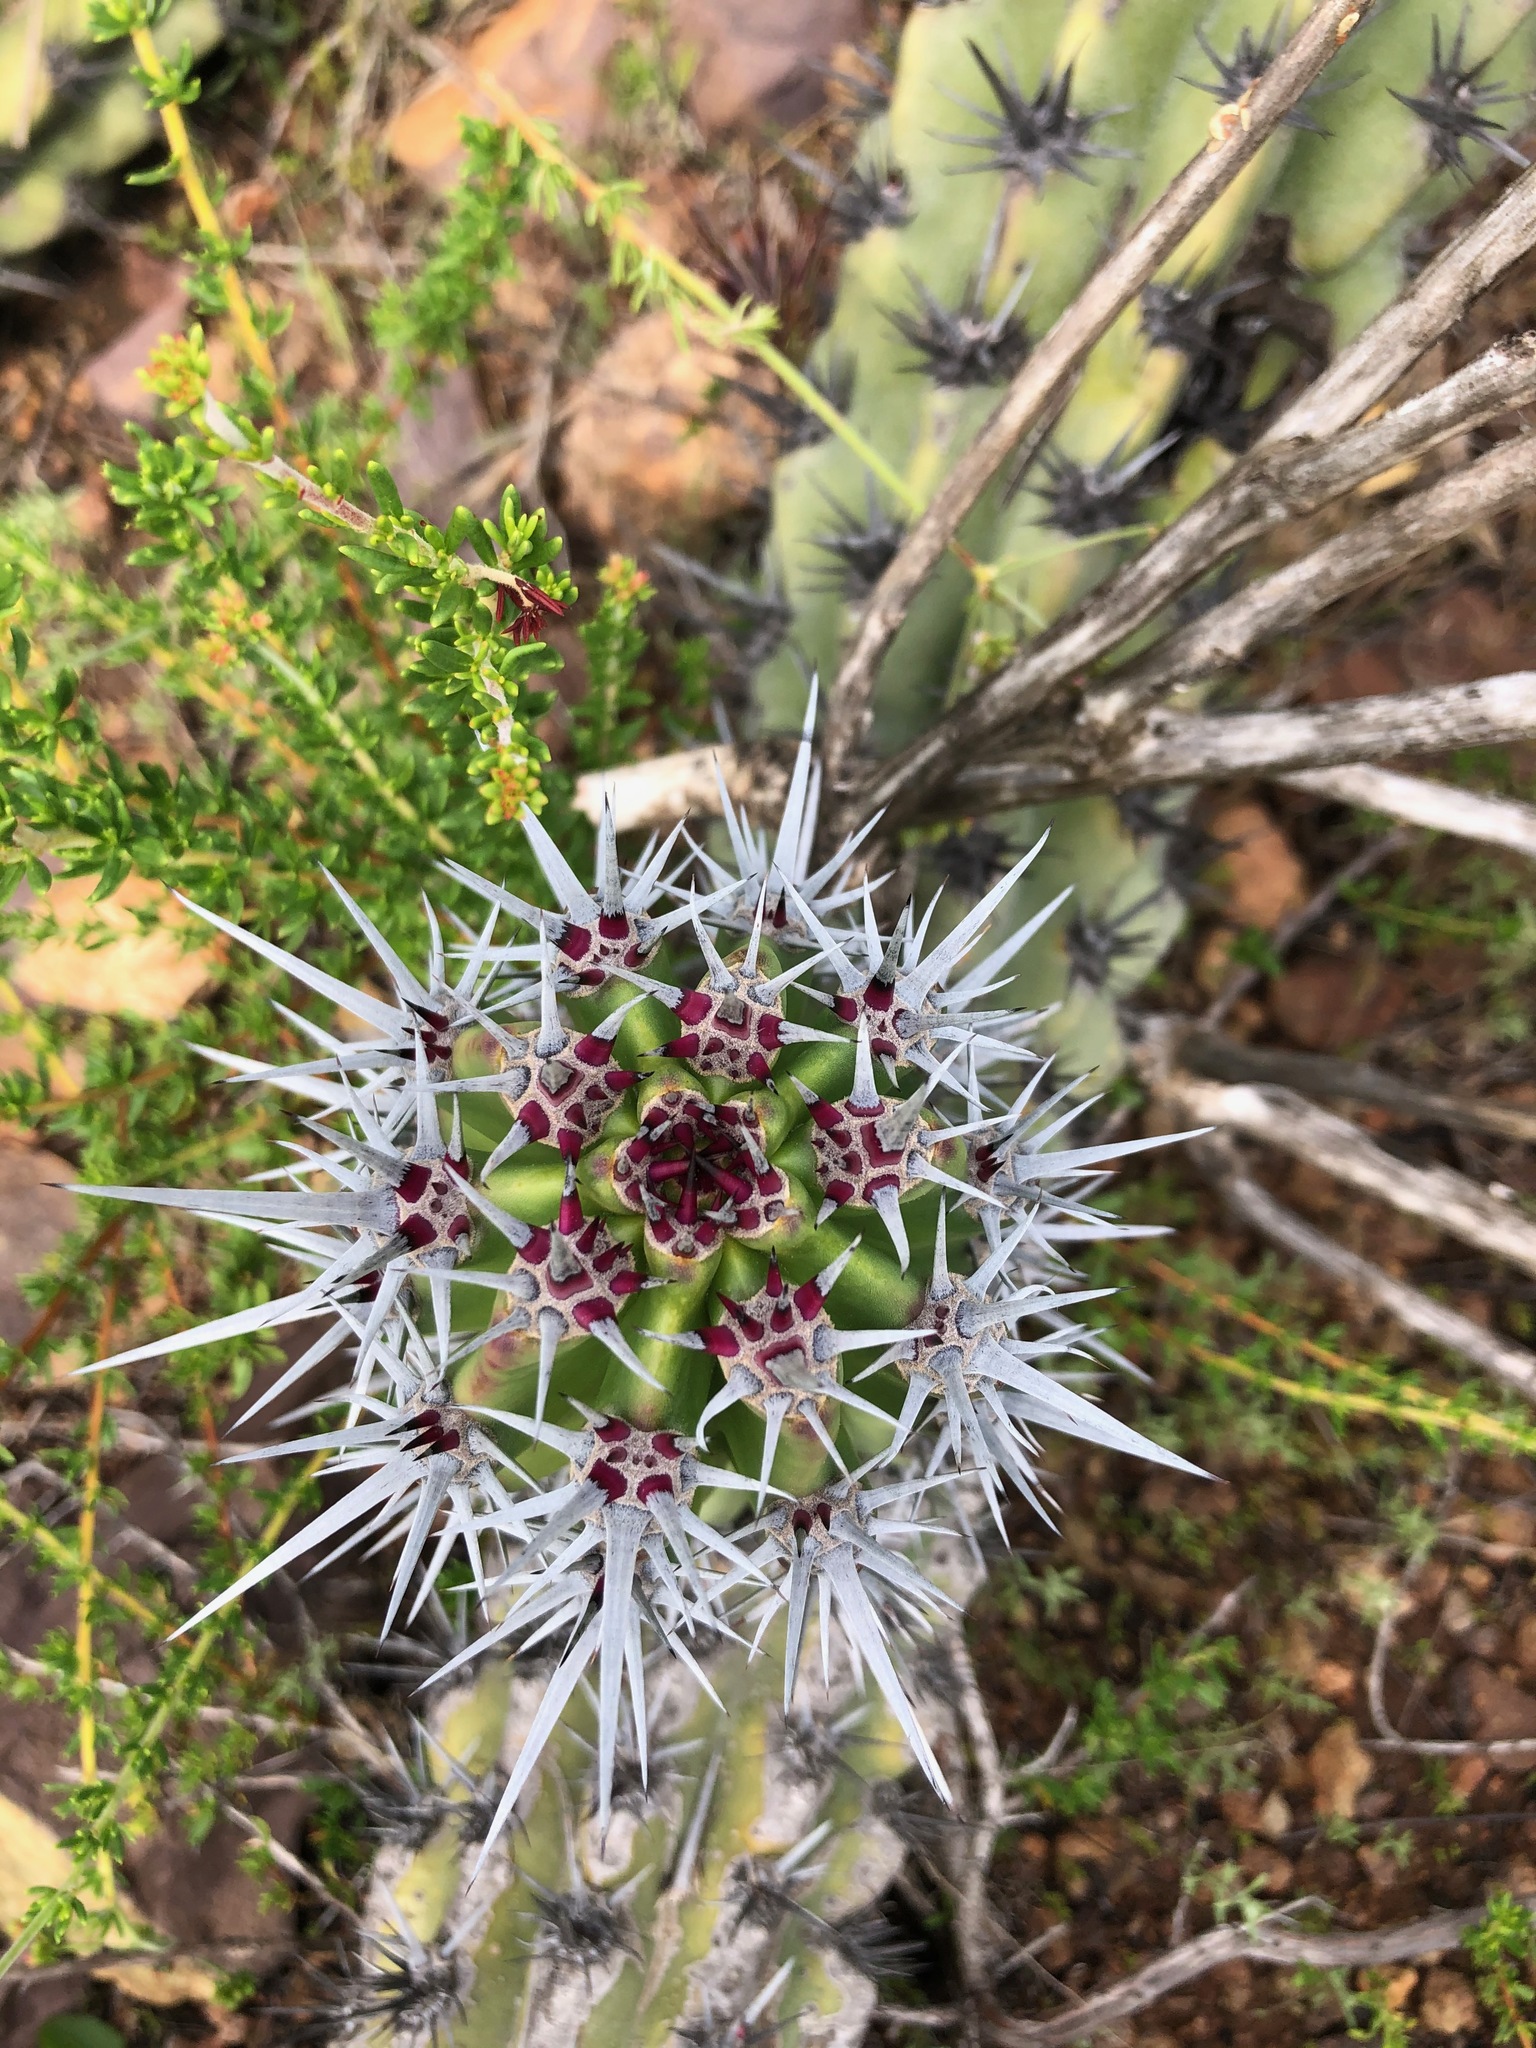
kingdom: Plantae
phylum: Tracheophyta
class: Magnoliopsida
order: Caryophyllales
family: Cactaceae
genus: Stenocereus
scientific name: Stenocereus gummosus
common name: Dagger cactus
